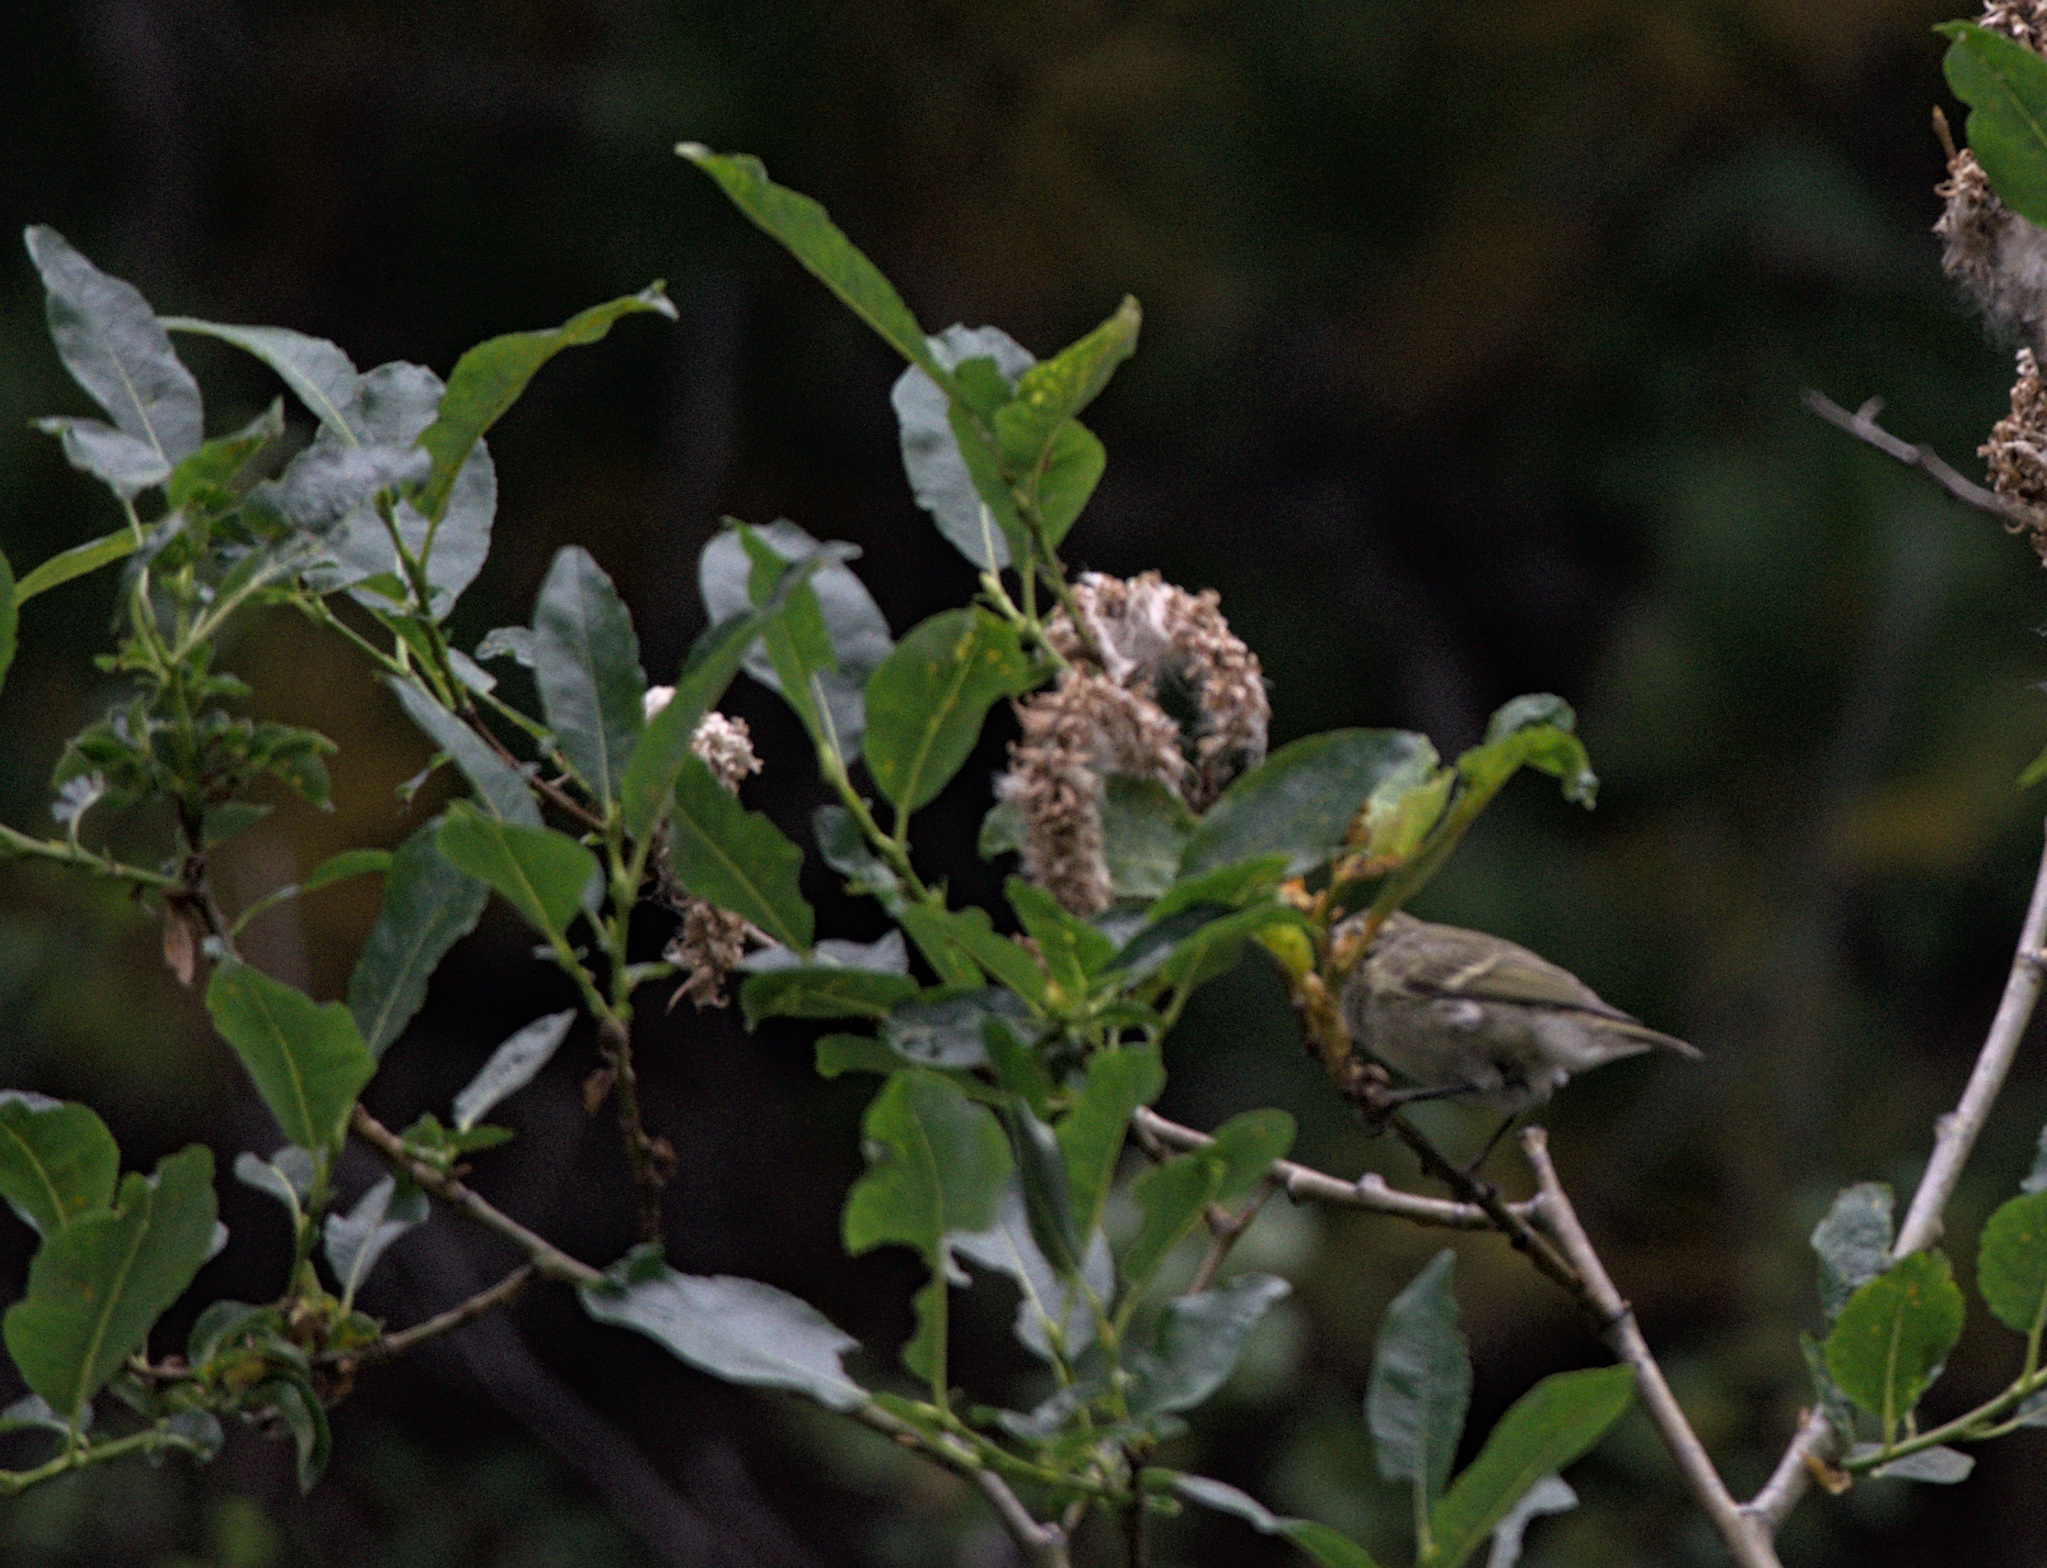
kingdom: Animalia
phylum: Chordata
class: Aves
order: Passeriformes
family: Phylloscopidae
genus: Phylloscopus
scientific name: Phylloscopus humei
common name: Hume's leaf warbler
